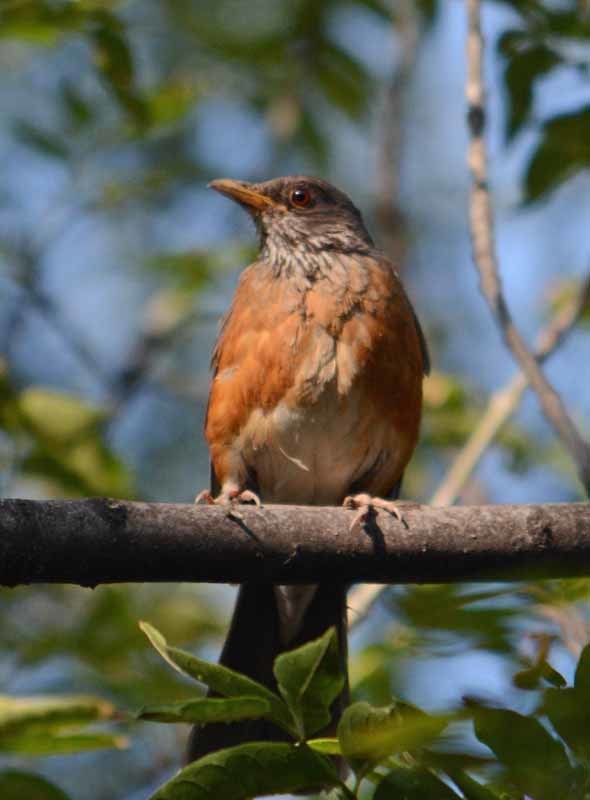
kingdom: Animalia
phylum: Chordata
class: Aves
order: Passeriformes
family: Turdidae
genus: Turdus
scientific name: Turdus rufopalliatus
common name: Rufous-backed robin
